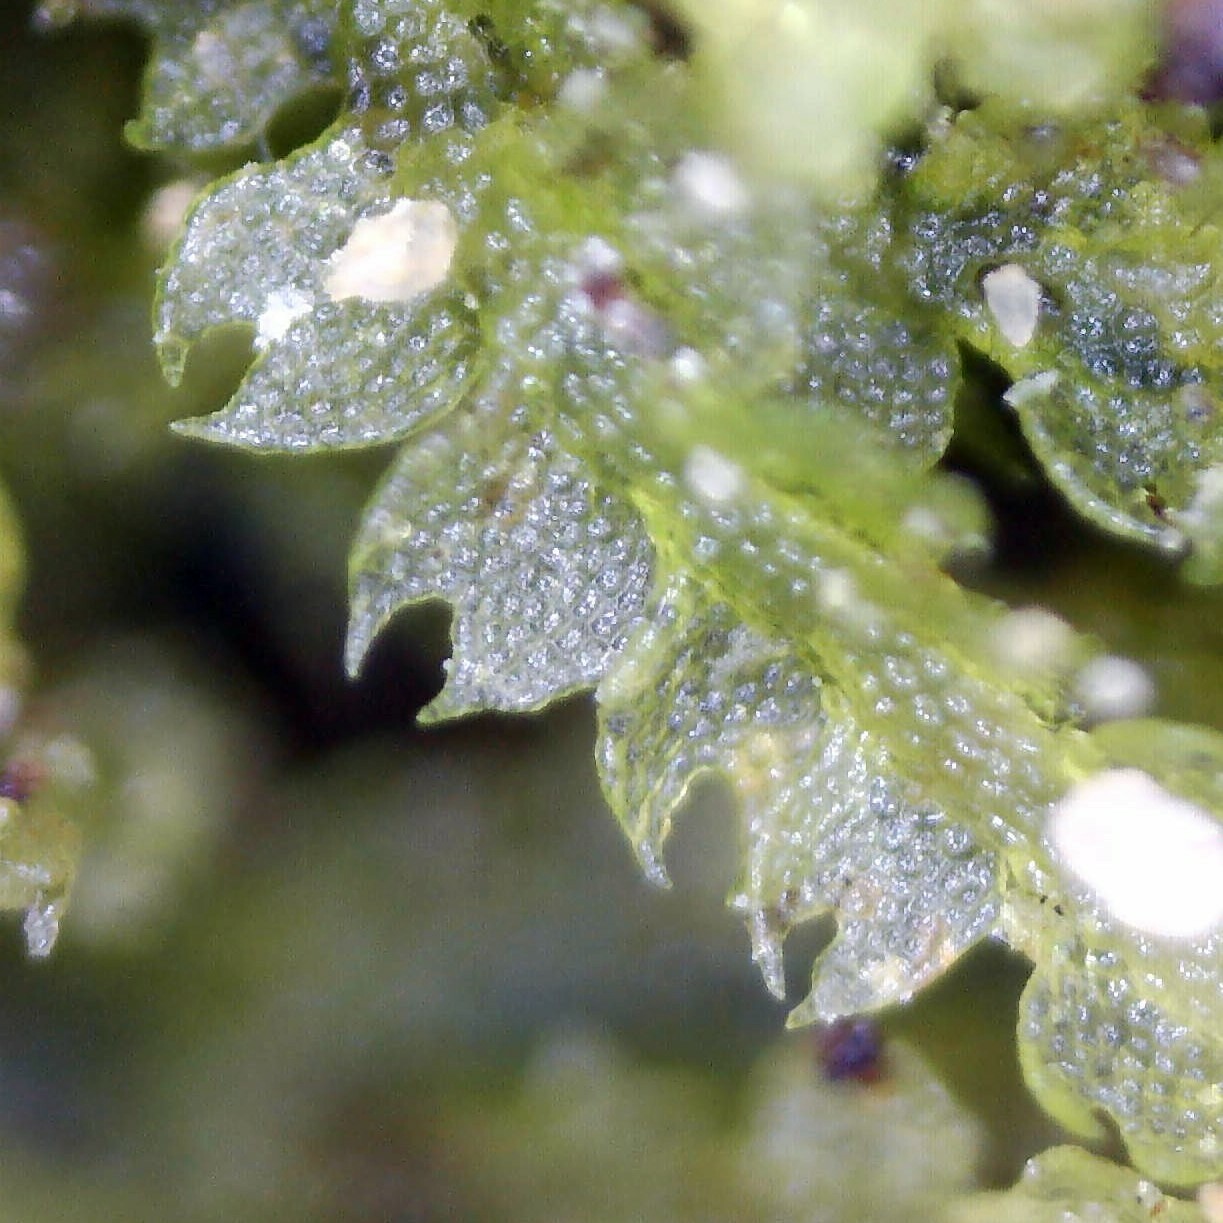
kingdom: Plantae
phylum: Marchantiophyta
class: Jungermanniopsida
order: Jungermanniales
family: Cephaloziaceae
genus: Fuscocephaloziopsis
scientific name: Fuscocephaloziopsis lunulifolia
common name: Moon-leaved pincerwort
